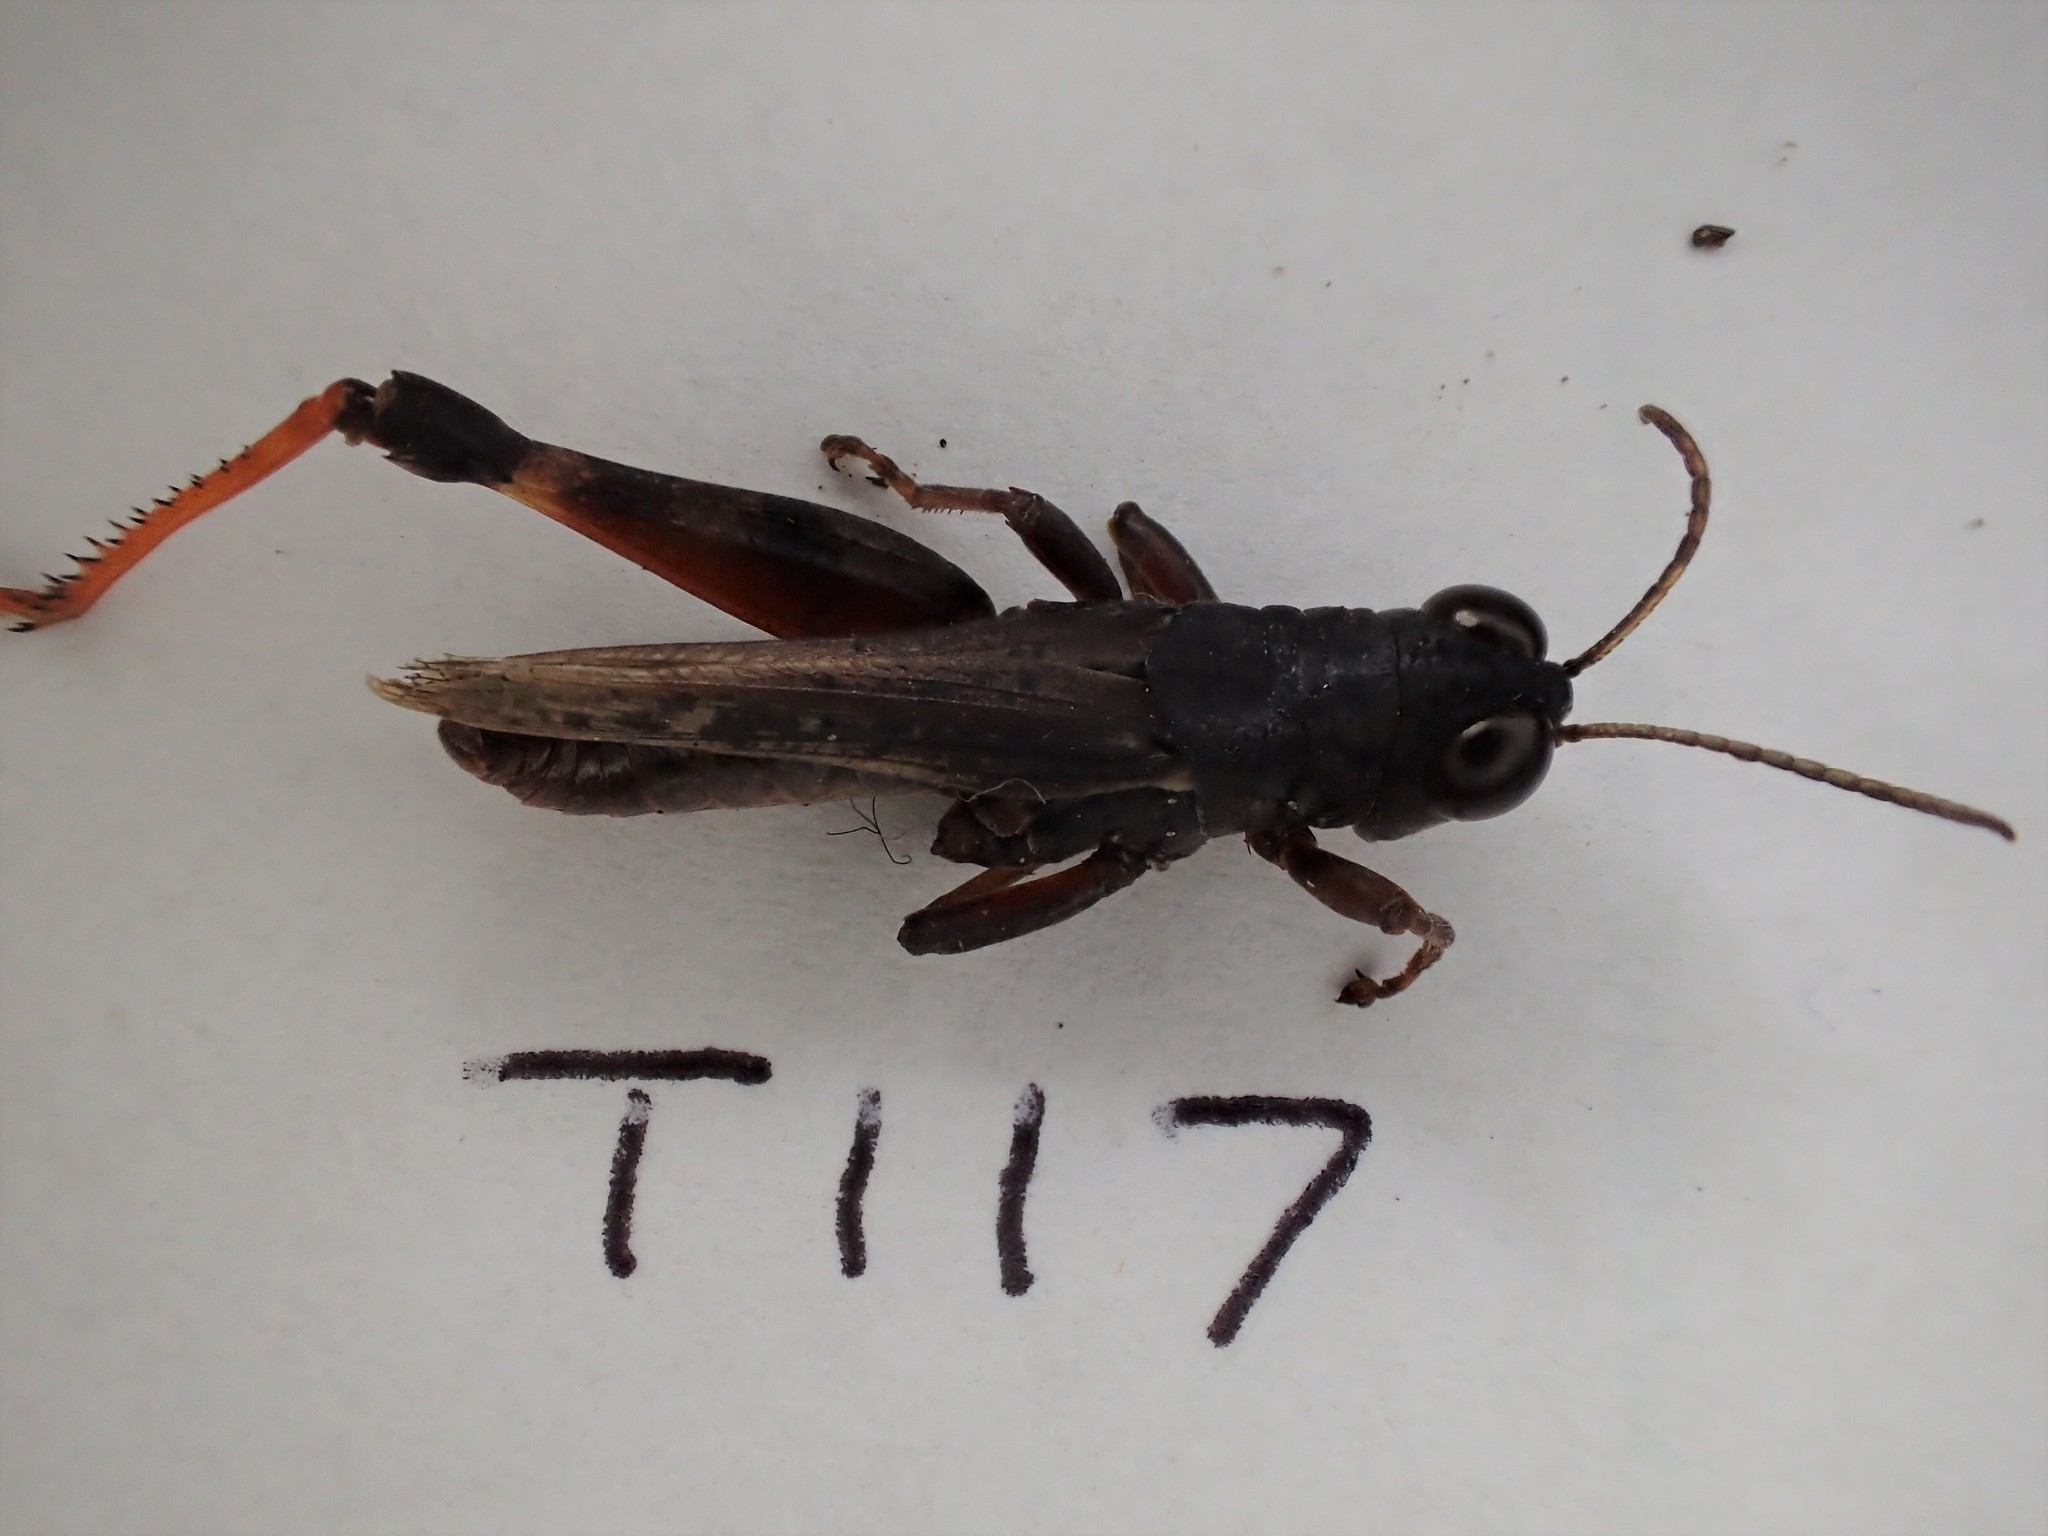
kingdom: Animalia
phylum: Arthropoda
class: Insecta
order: Orthoptera
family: Acrididae
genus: Exarna
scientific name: Exarna includens
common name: Red-legged exarna
